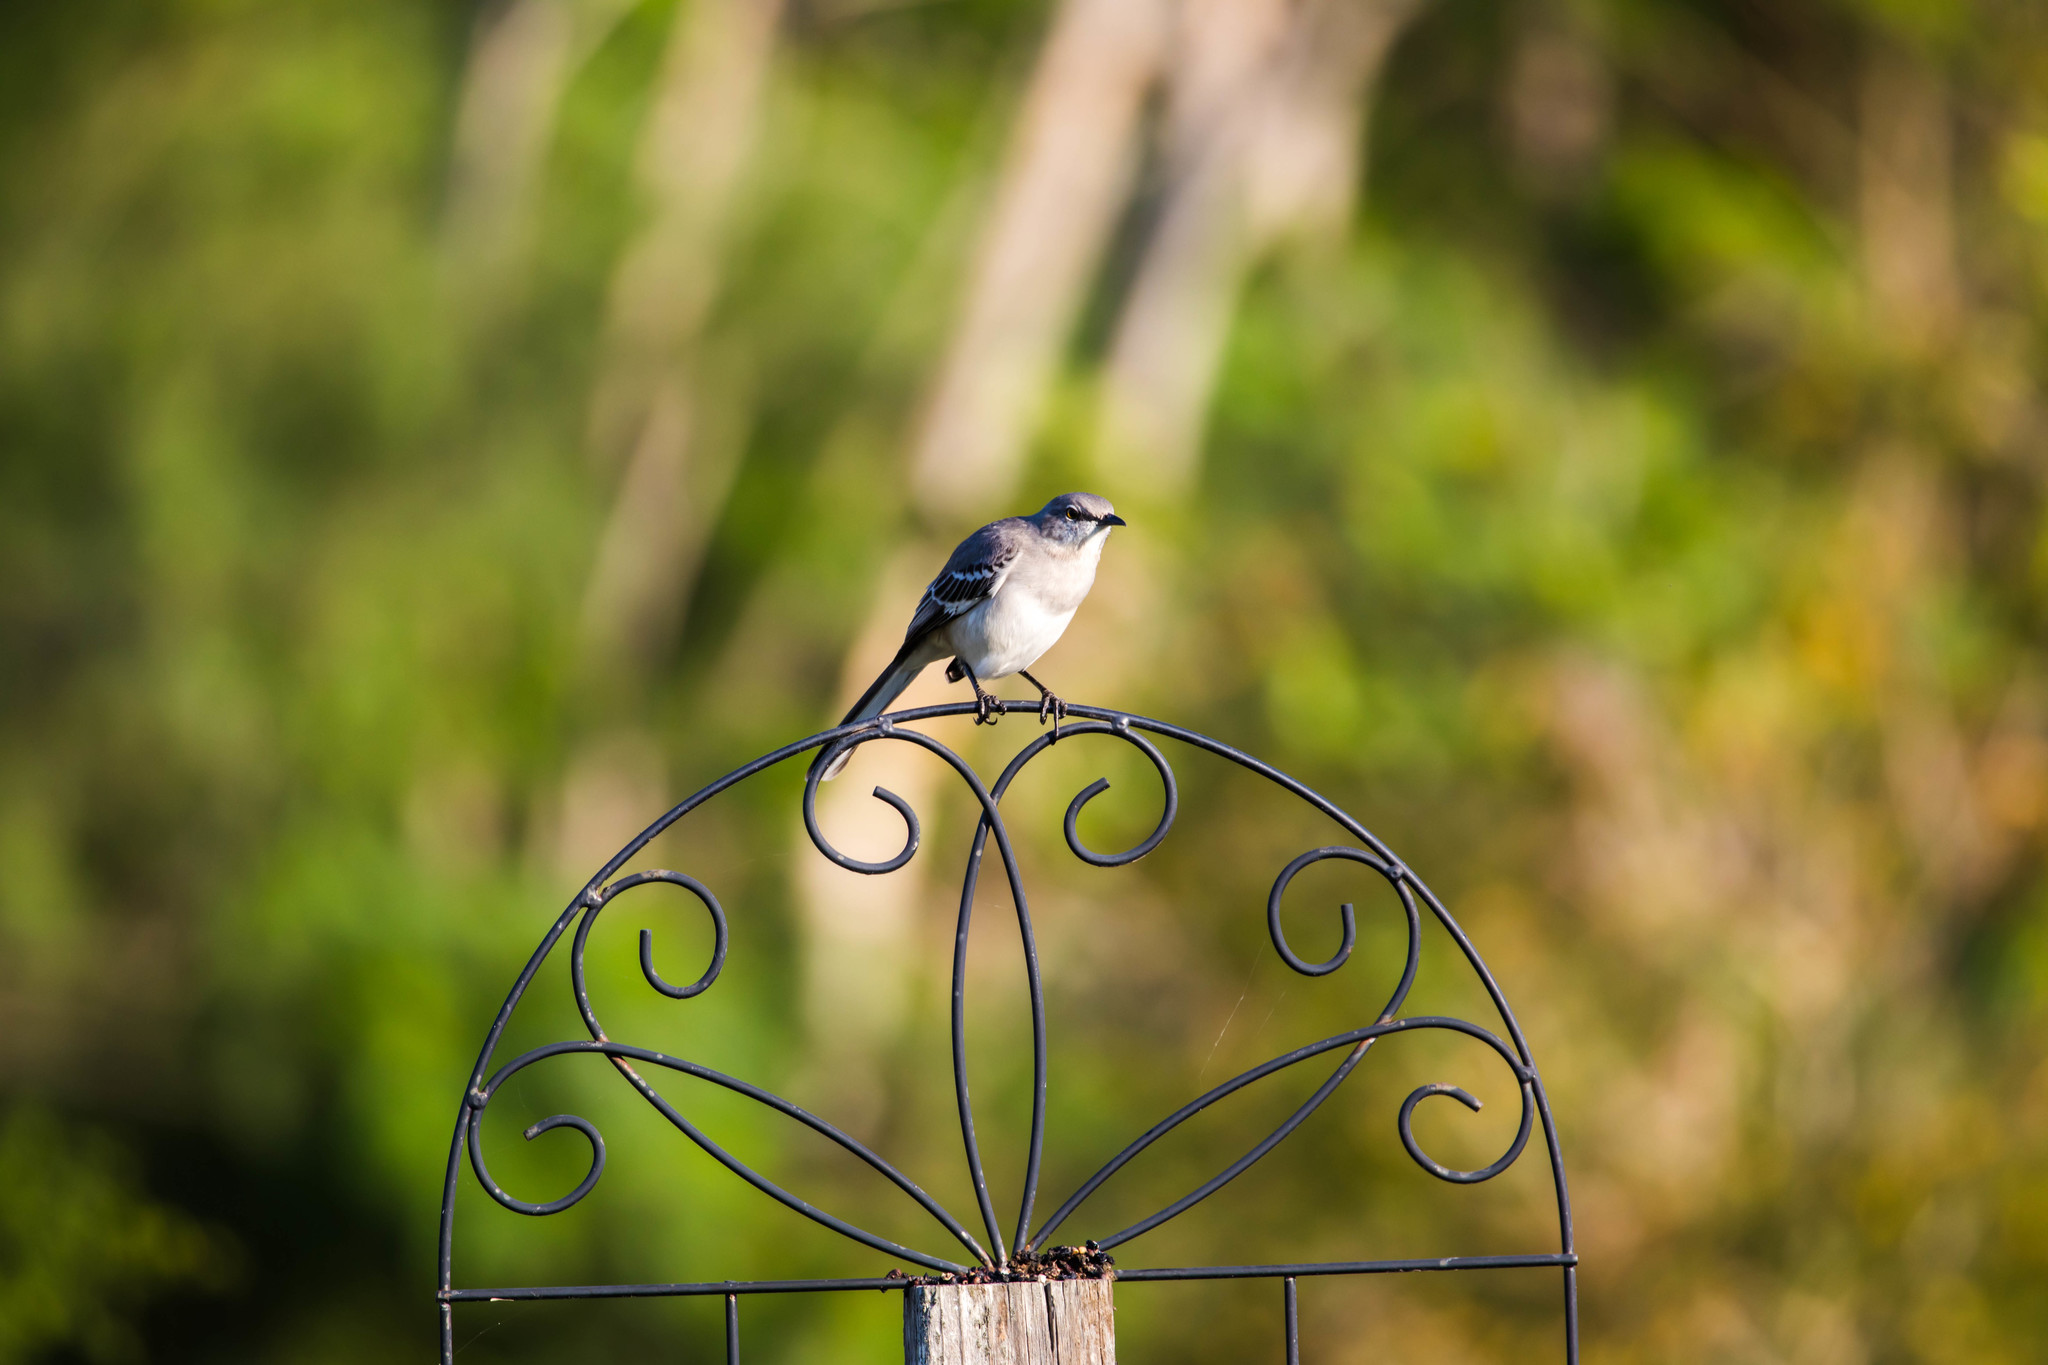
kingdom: Animalia
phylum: Chordata
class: Aves
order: Passeriformes
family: Mimidae
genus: Mimus
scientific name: Mimus polyglottos
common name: Northern mockingbird
